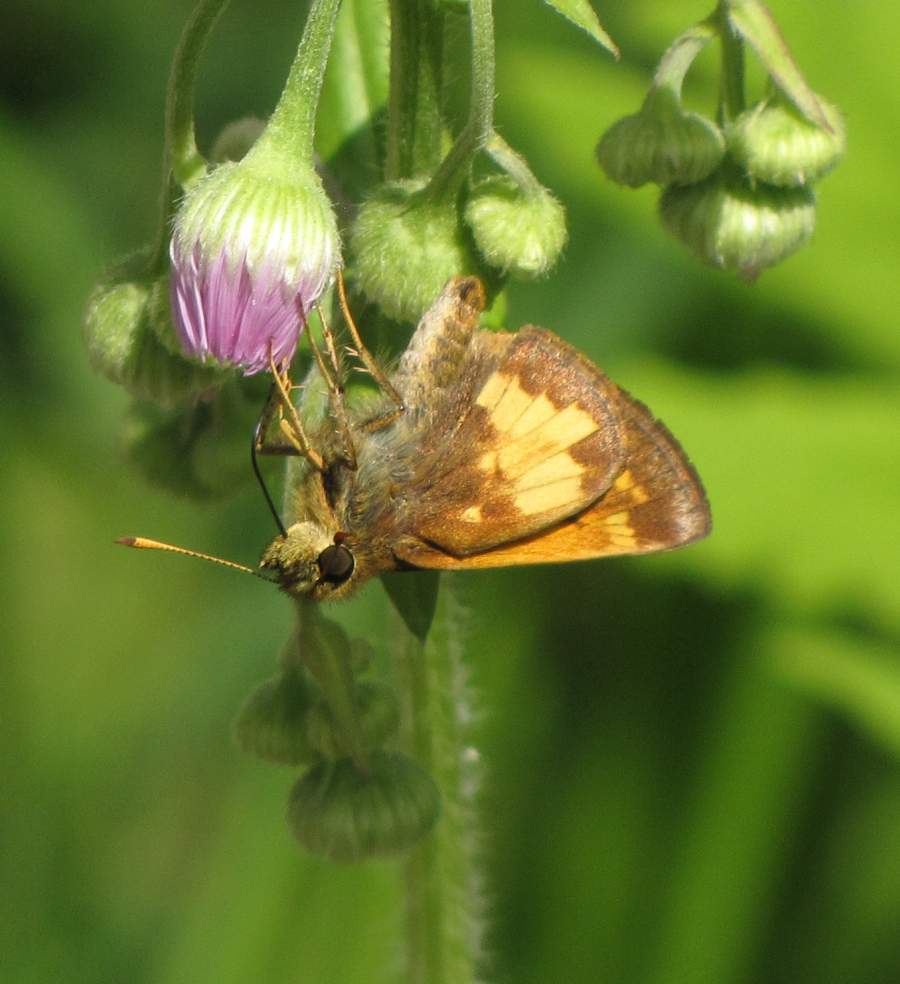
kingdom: Animalia
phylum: Arthropoda
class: Insecta
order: Lepidoptera
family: Hesperiidae
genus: Lon
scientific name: Lon hobomok
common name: Hobomok skipper
